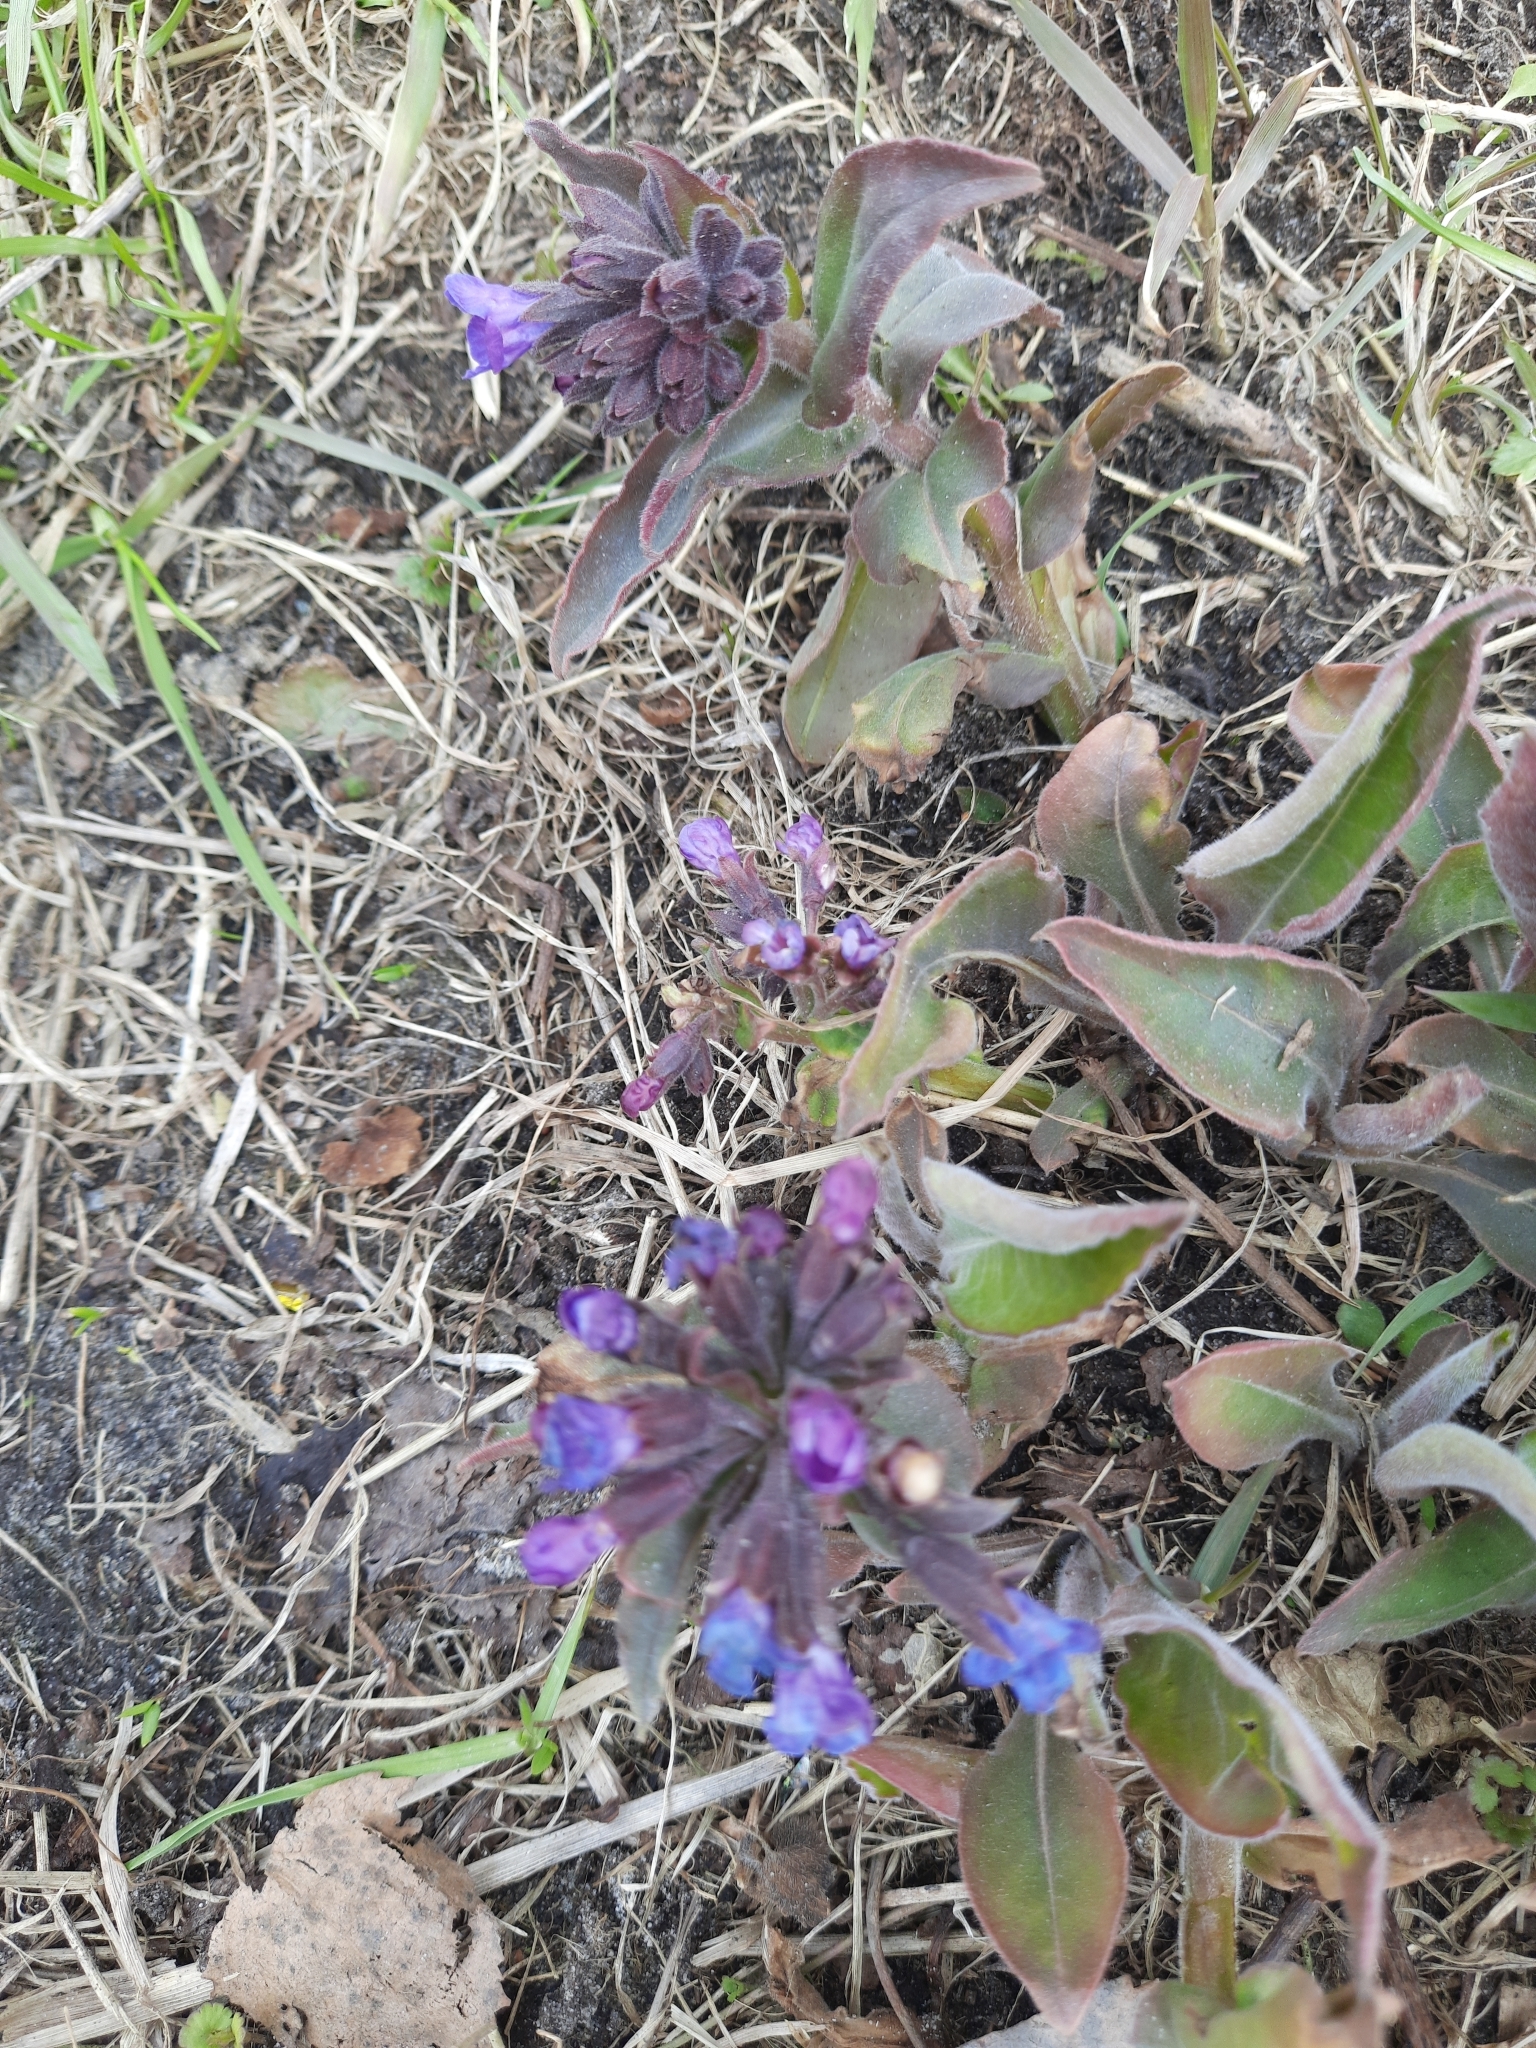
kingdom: Plantae
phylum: Tracheophyta
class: Magnoliopsida
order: Boraginales
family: Boraginaceae
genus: Pulmonaria
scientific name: Pulmonaria mollis
